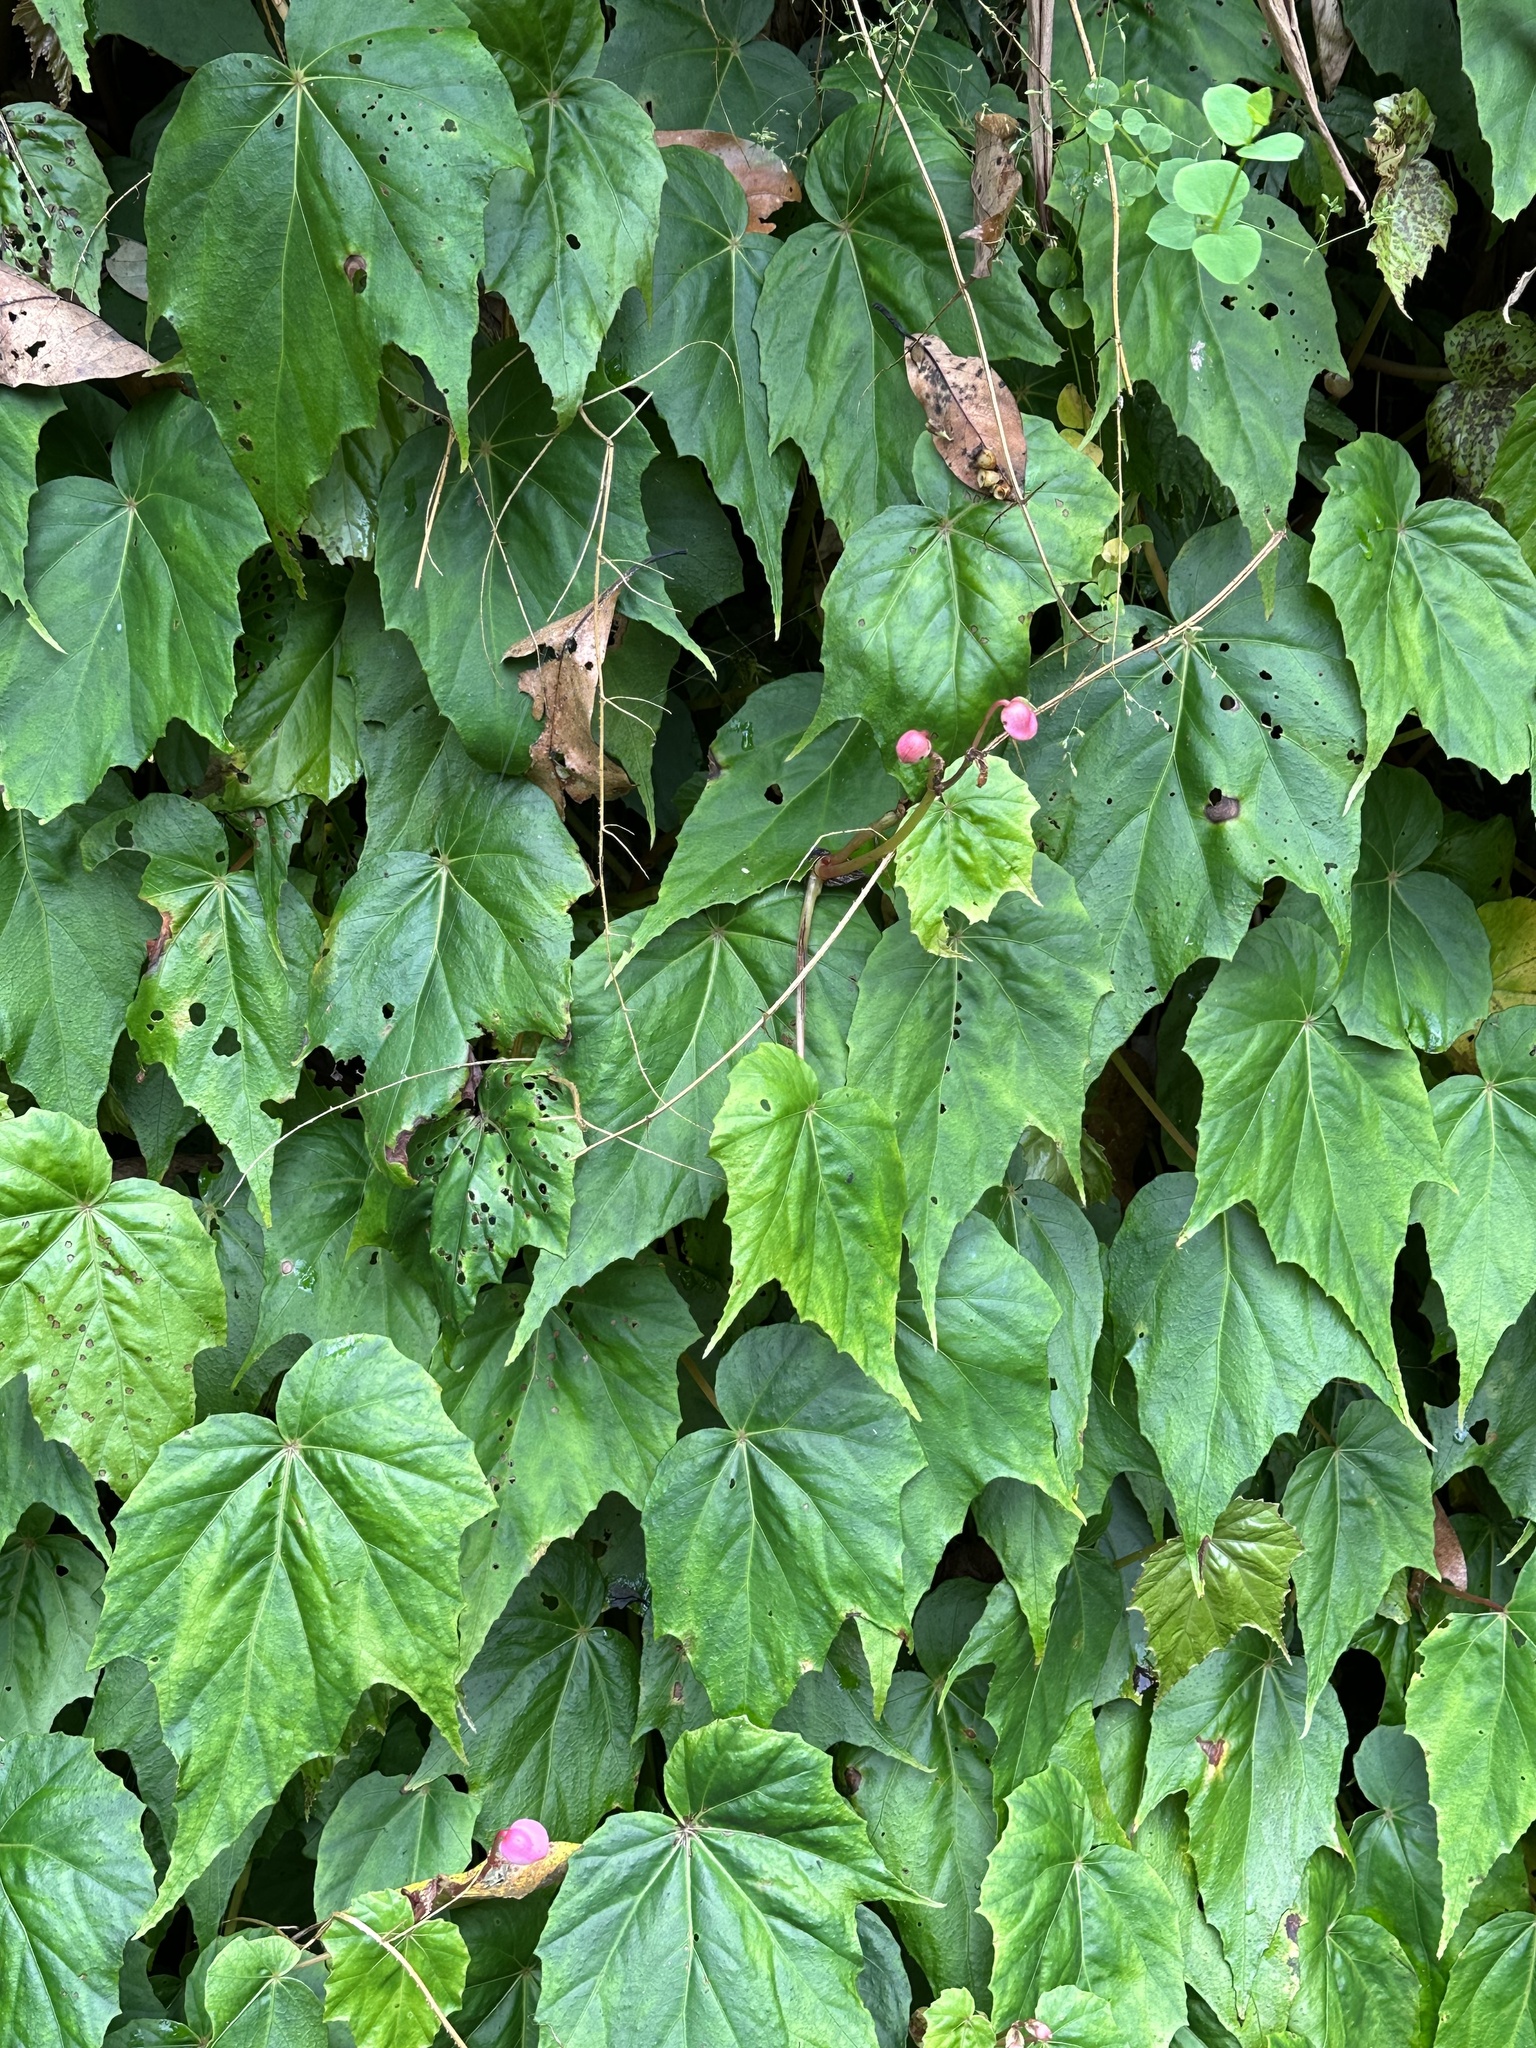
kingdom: Plantae
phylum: Tracheophyta
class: Magnoliopsida
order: Cucurbitales
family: Begoniaceae
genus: Begonia
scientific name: Begonia formosana
